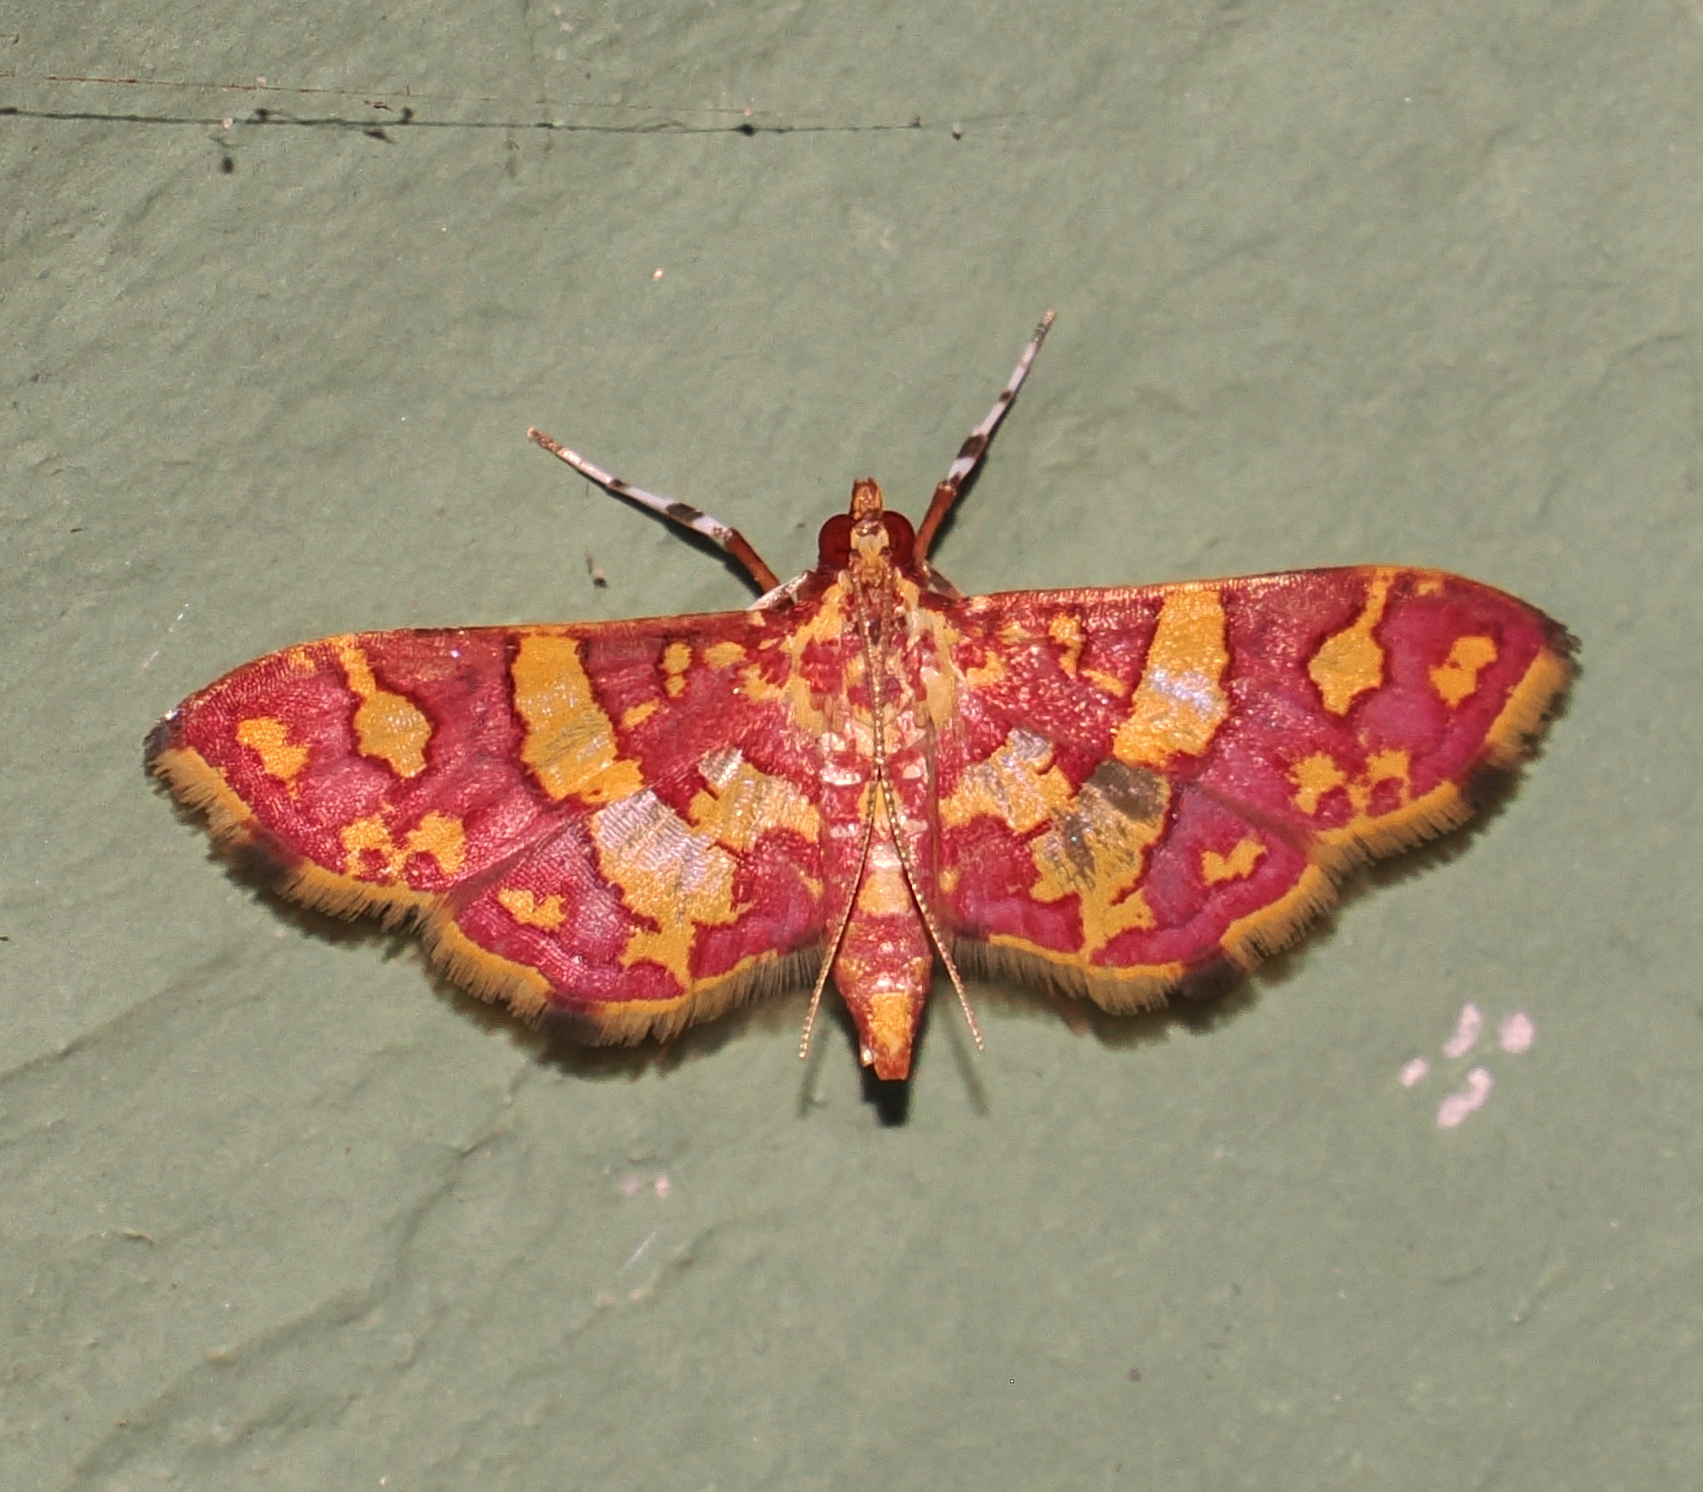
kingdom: Animalia
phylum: Arthropoda
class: Insecta
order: Lepidoptera
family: Crambidae
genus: Trithyris
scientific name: Trithyris Prenesta rubrocinctalis
